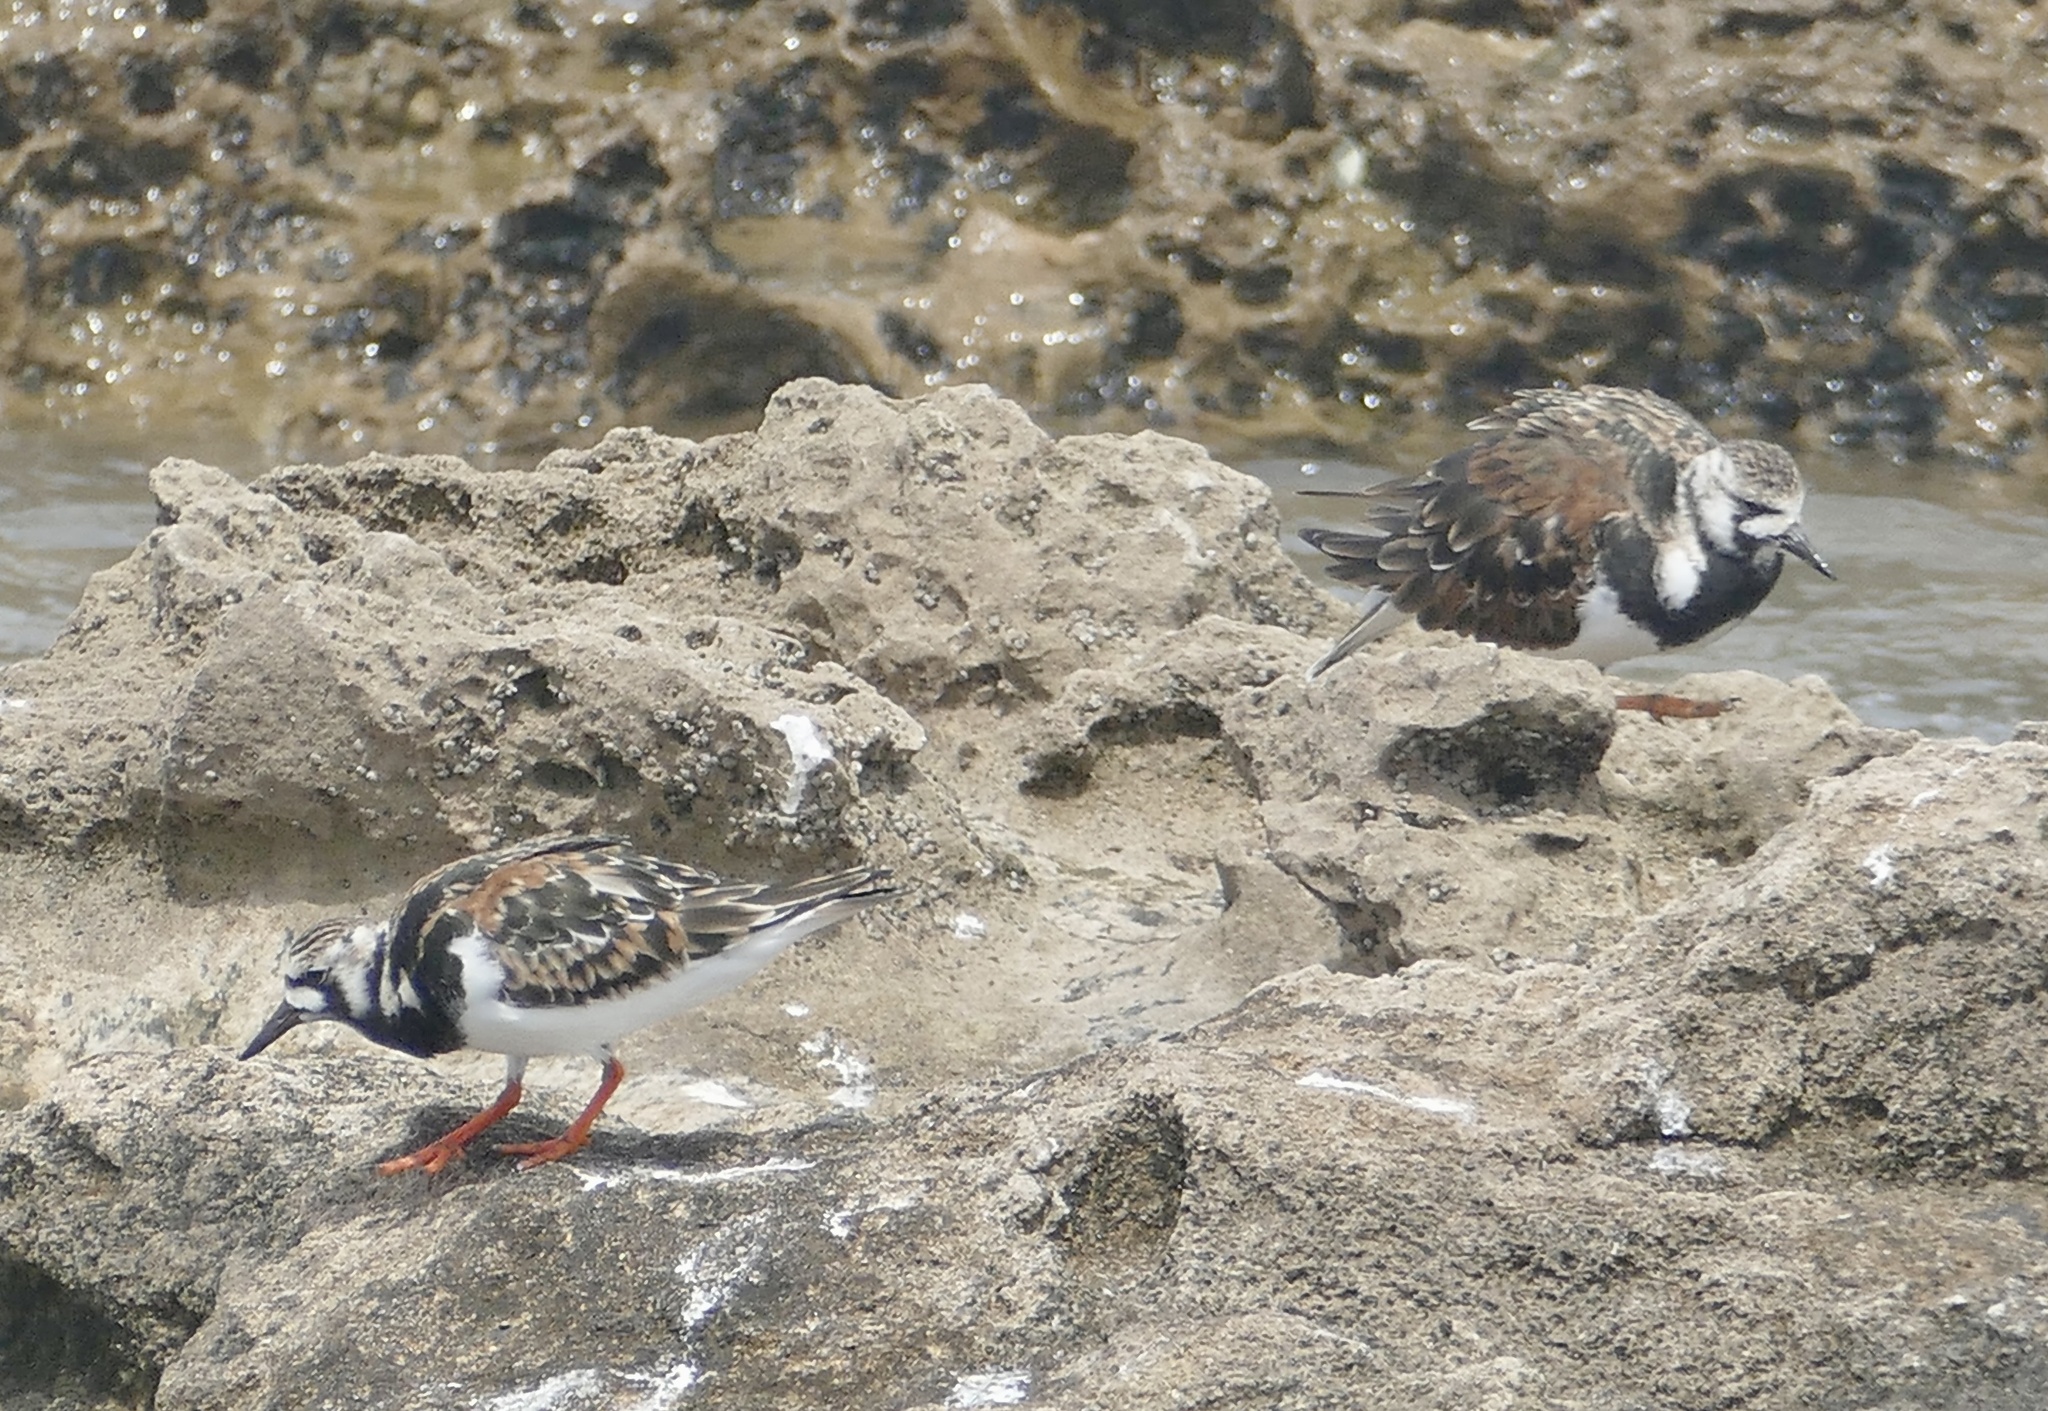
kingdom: Animalia
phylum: Chordata
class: Aves
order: Charadriiformes
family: Scolopacidae
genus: Arenaria
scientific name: Arenaria interpres
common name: Ruddy turnstone
